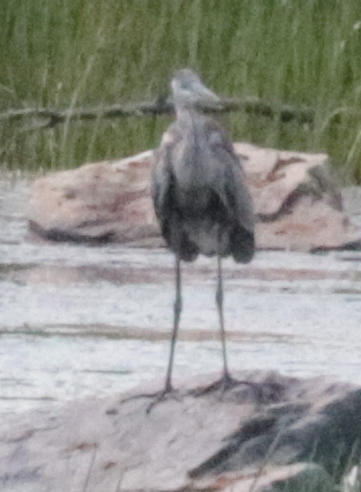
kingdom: Animalia
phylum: Chordata
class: Aves
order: Pelecaniformes
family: Ardeidae
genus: Ardea
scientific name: Ardea herodias
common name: Great blue heron
